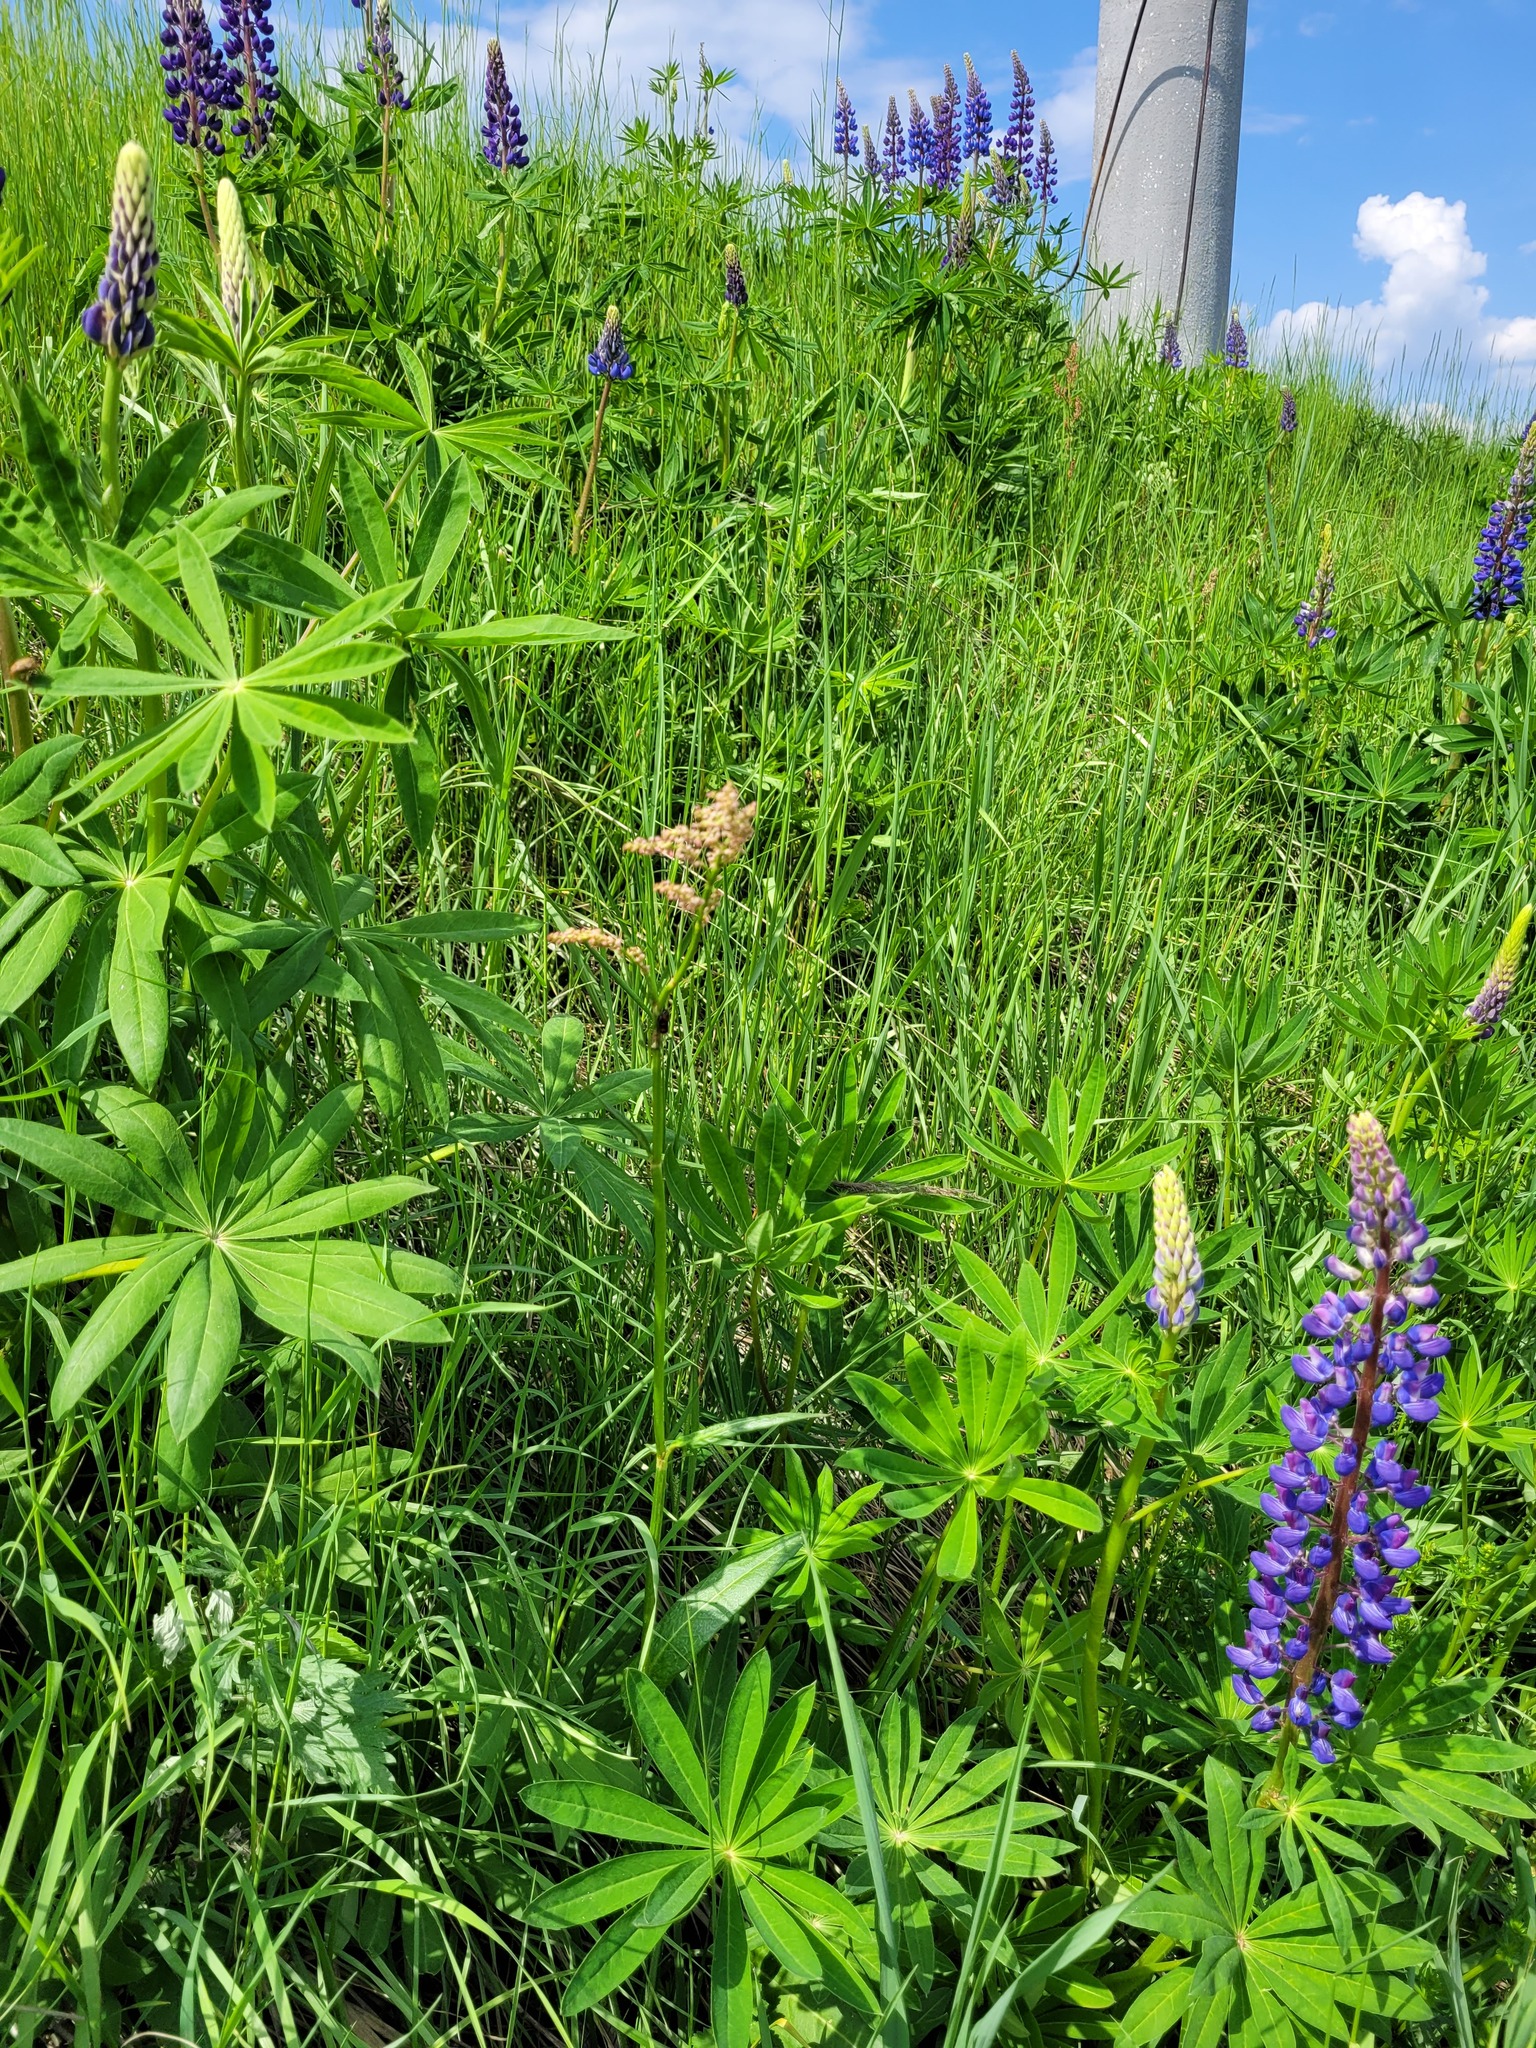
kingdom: Plantae
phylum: Tracheophyta
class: Magnoliopsida
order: Caryophyllales
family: Polygonaceae
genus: Rumex
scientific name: Rumex thyrsiflorus
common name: Garden sorrel
